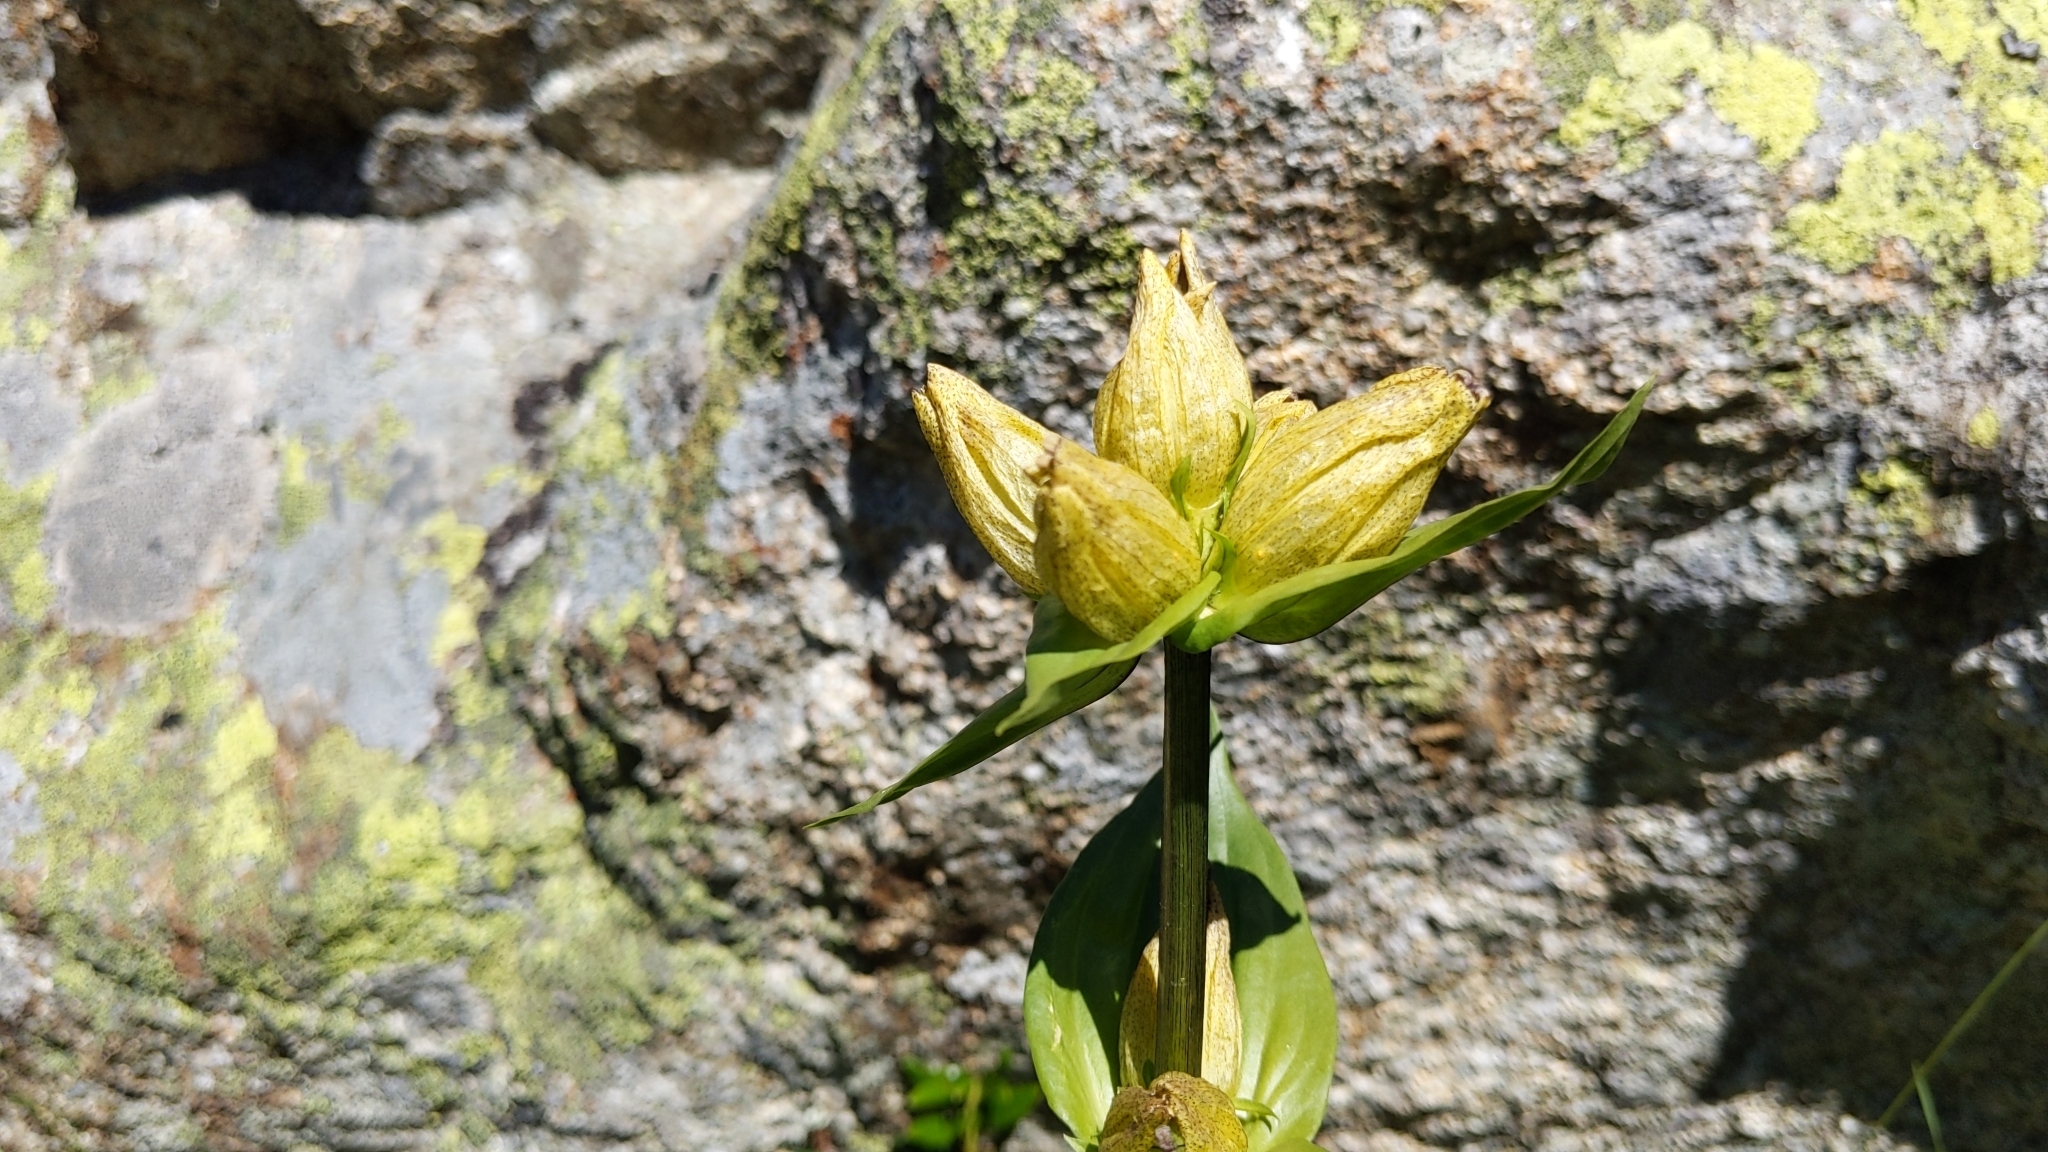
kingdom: Plantae
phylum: Tracheophyta
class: Magnoliopsida
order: Gentianales
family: Gentianaceae
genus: Gentiana
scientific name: Gentiana punctata
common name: Spotted gentian
